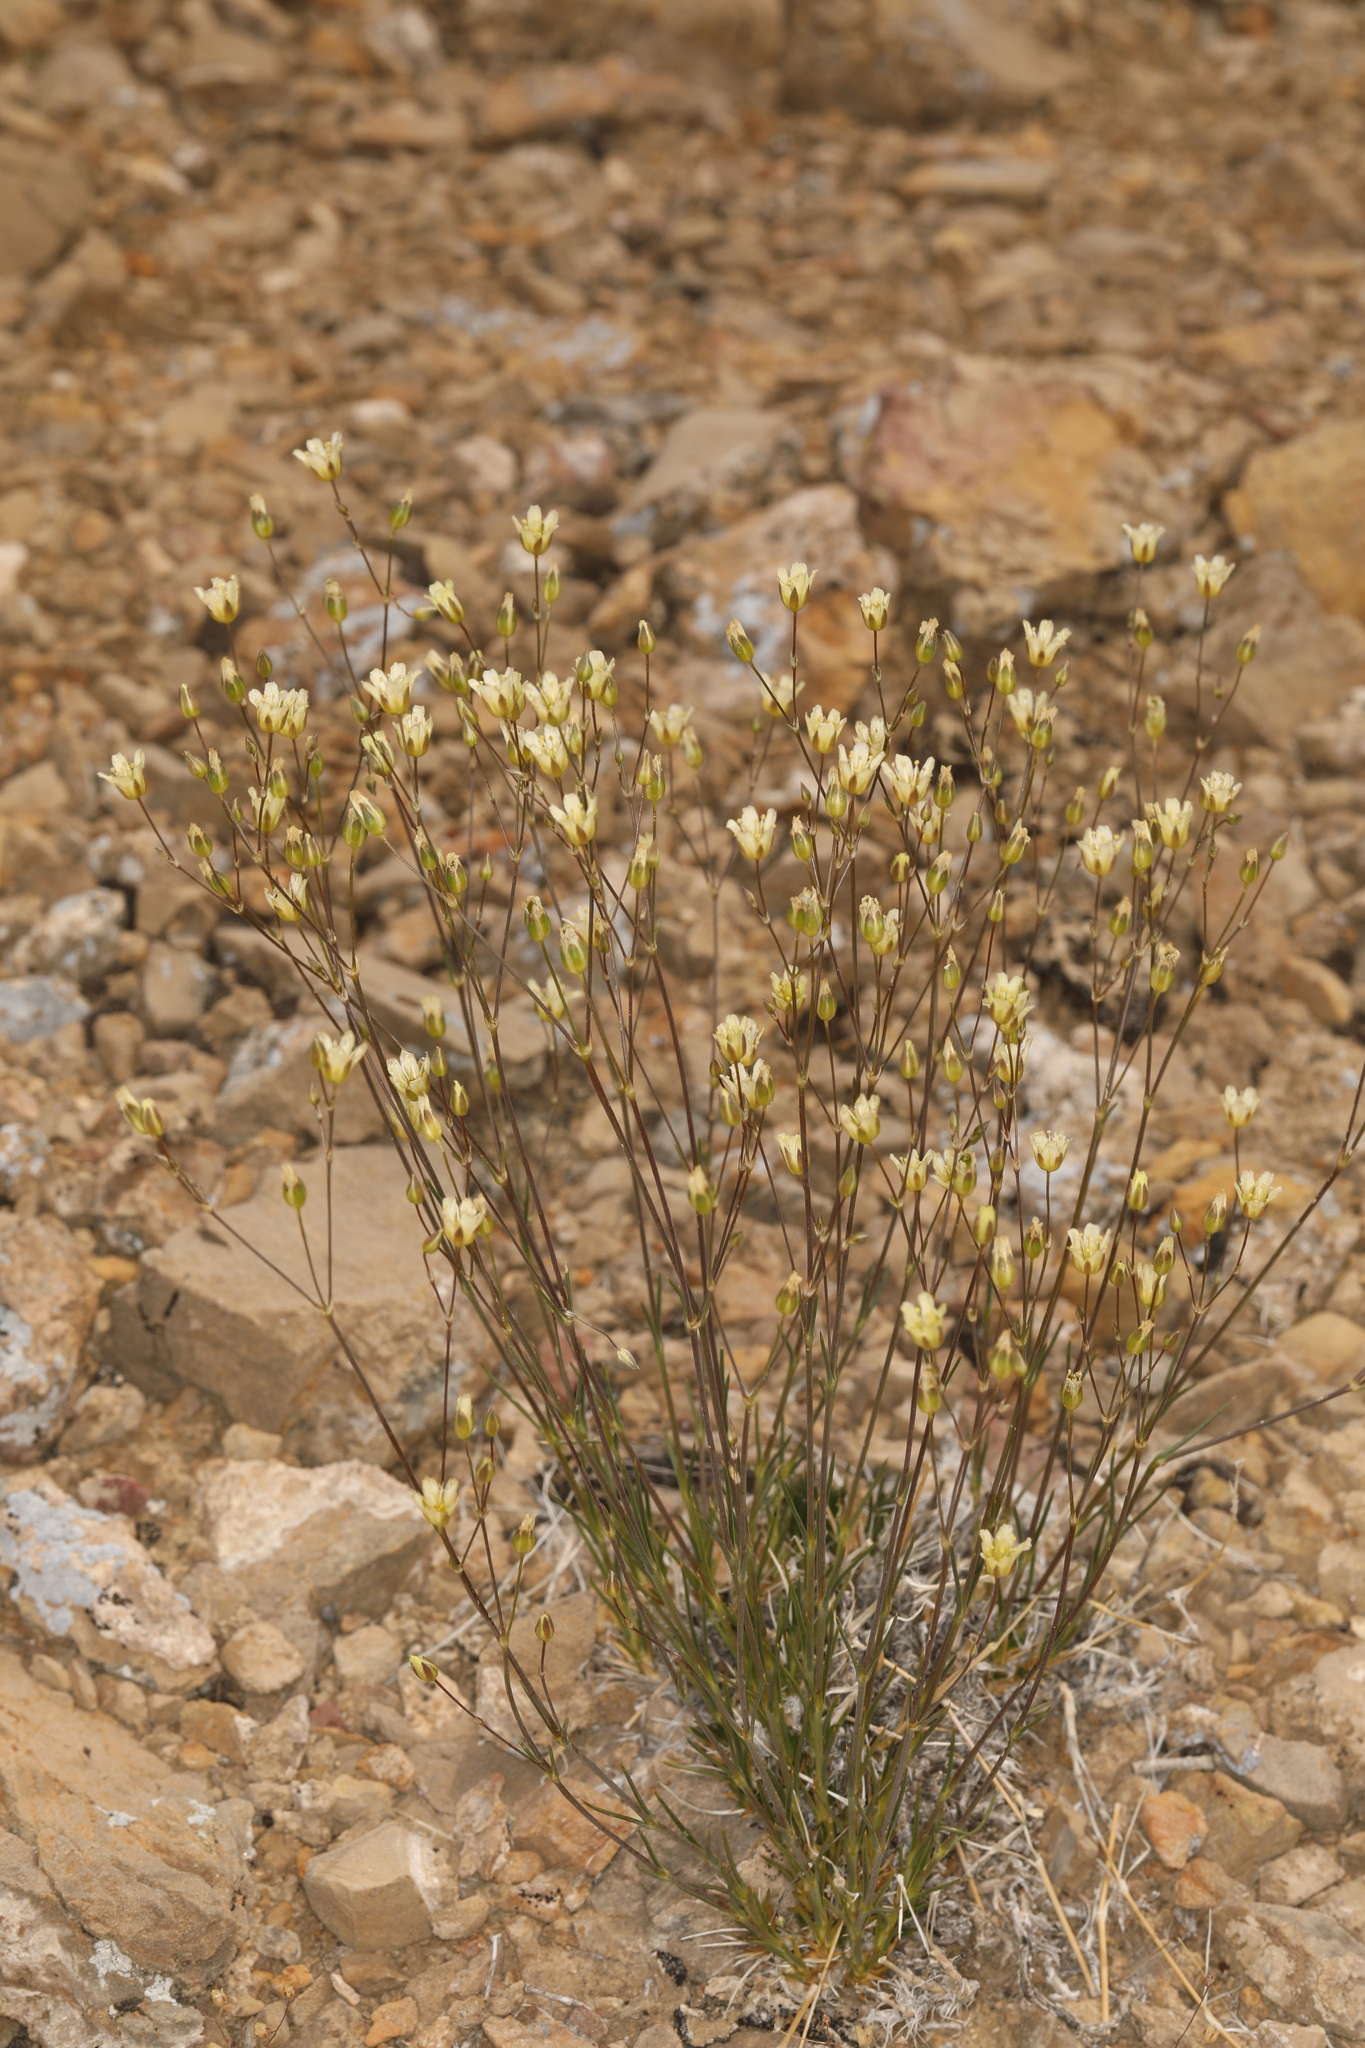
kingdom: Plantae
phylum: Tracheophyta
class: Magnoliopsida
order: Caryophyllales
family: Caryophyllaceae
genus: Eremogone
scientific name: Eremogone macradenia
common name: Mohave sandwort
